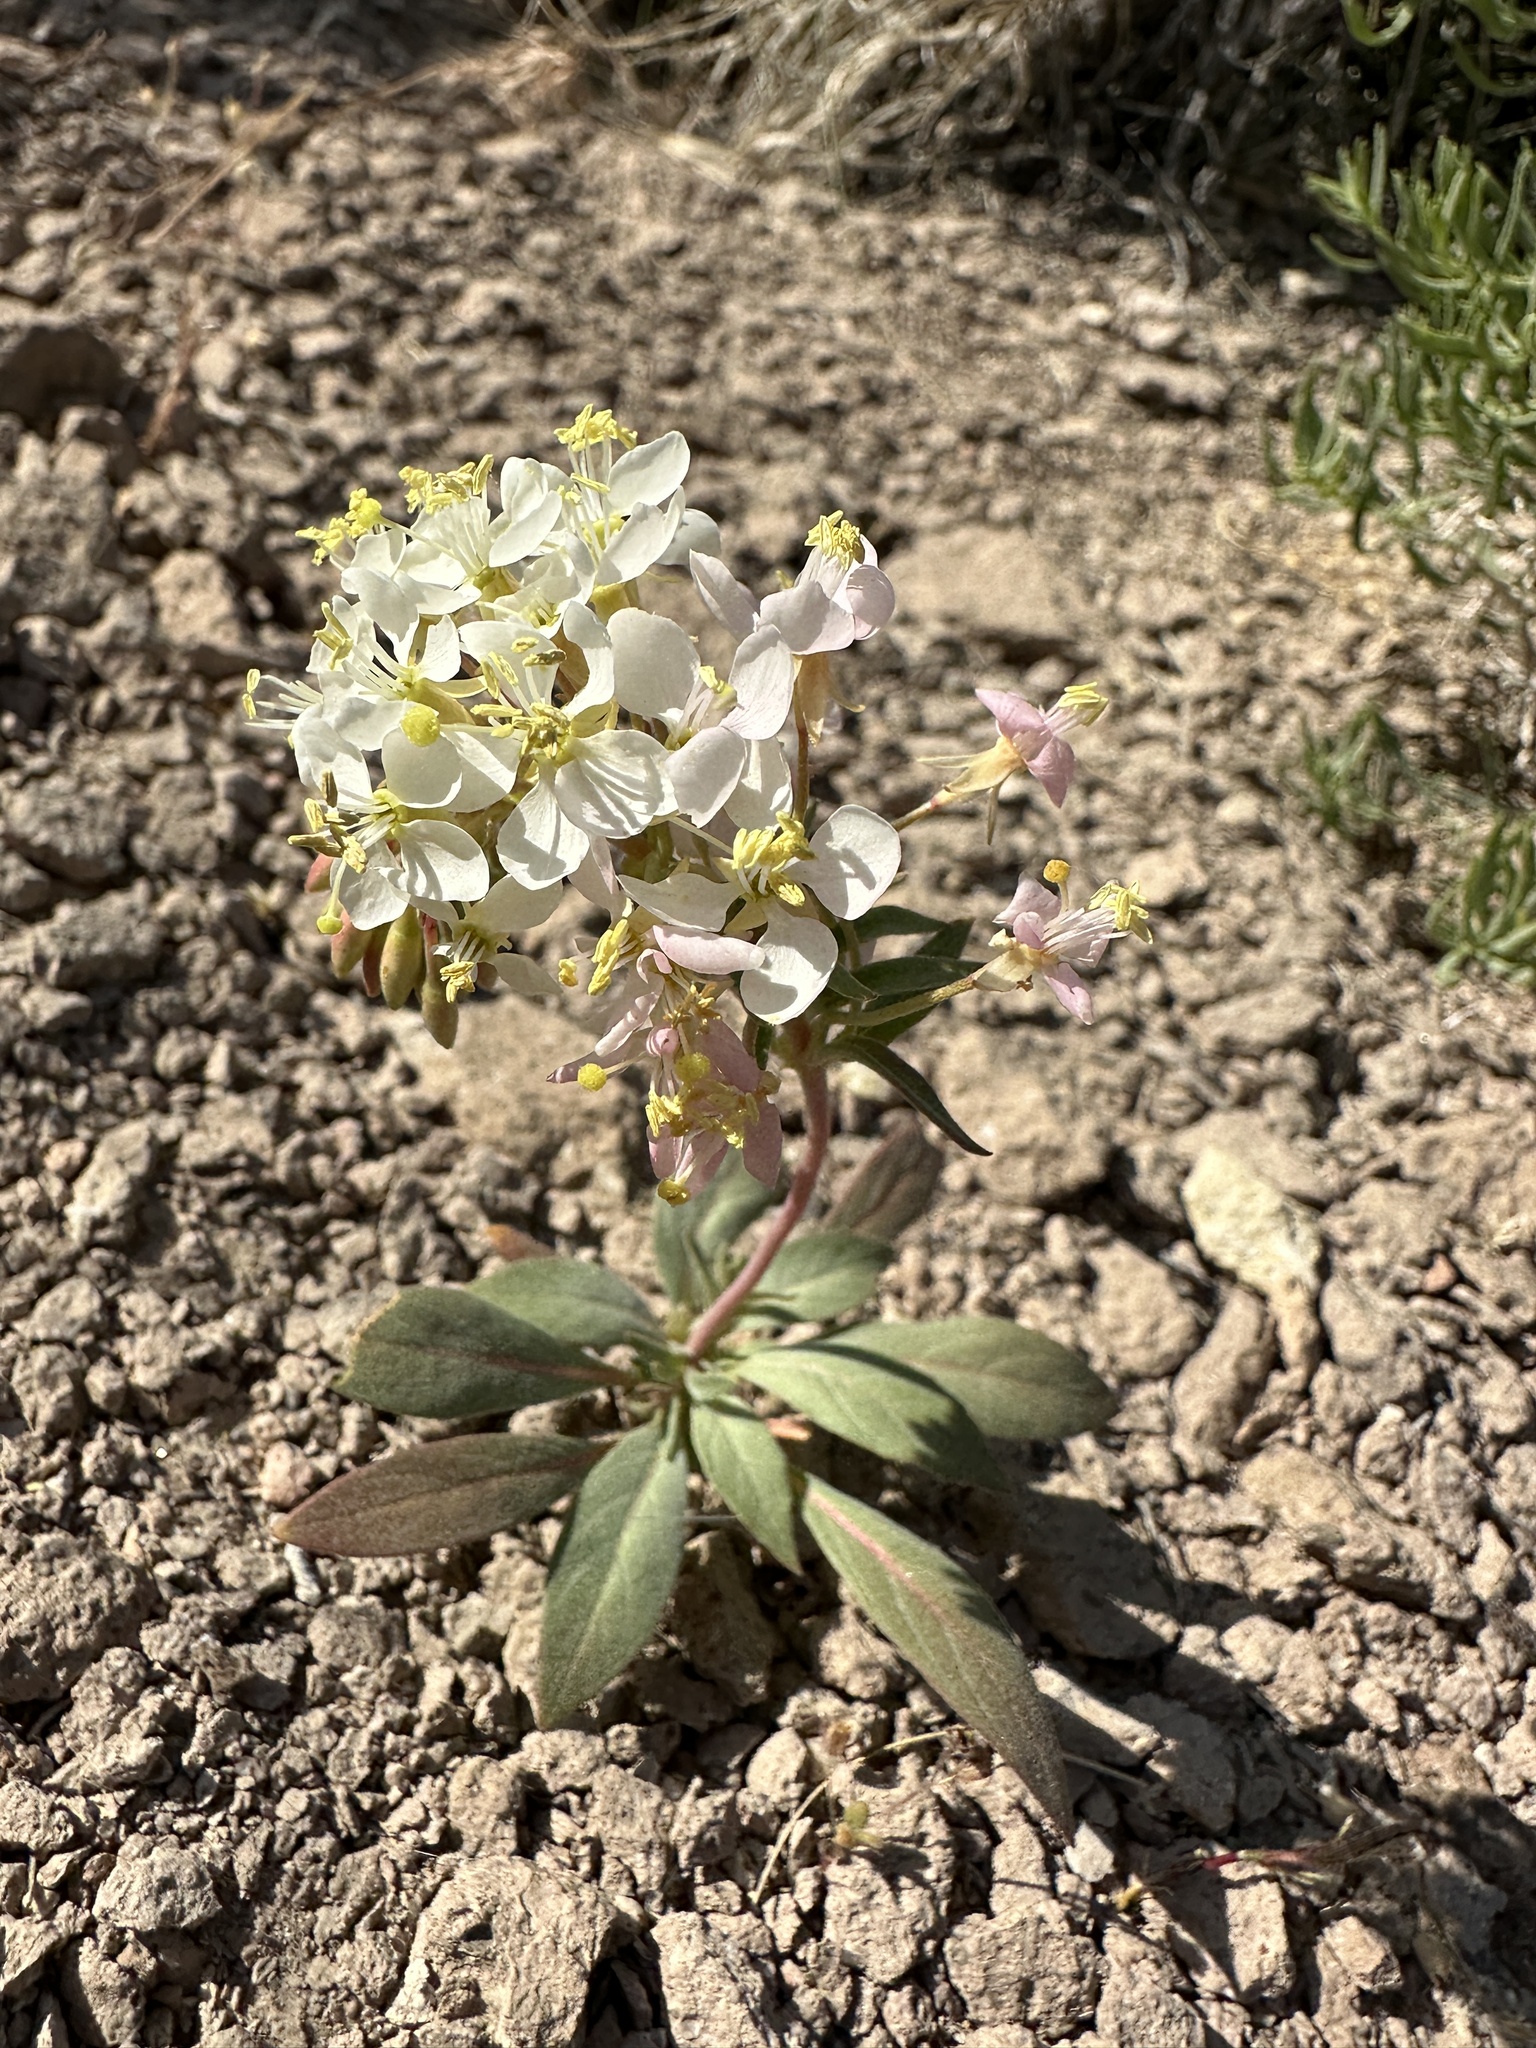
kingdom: Plantae
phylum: Tracheophyta
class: Magnoliopsida
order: Myrtales
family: Onagraceae
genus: Eremothera
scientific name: Eremothera boothii
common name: Booth's evening primrose
